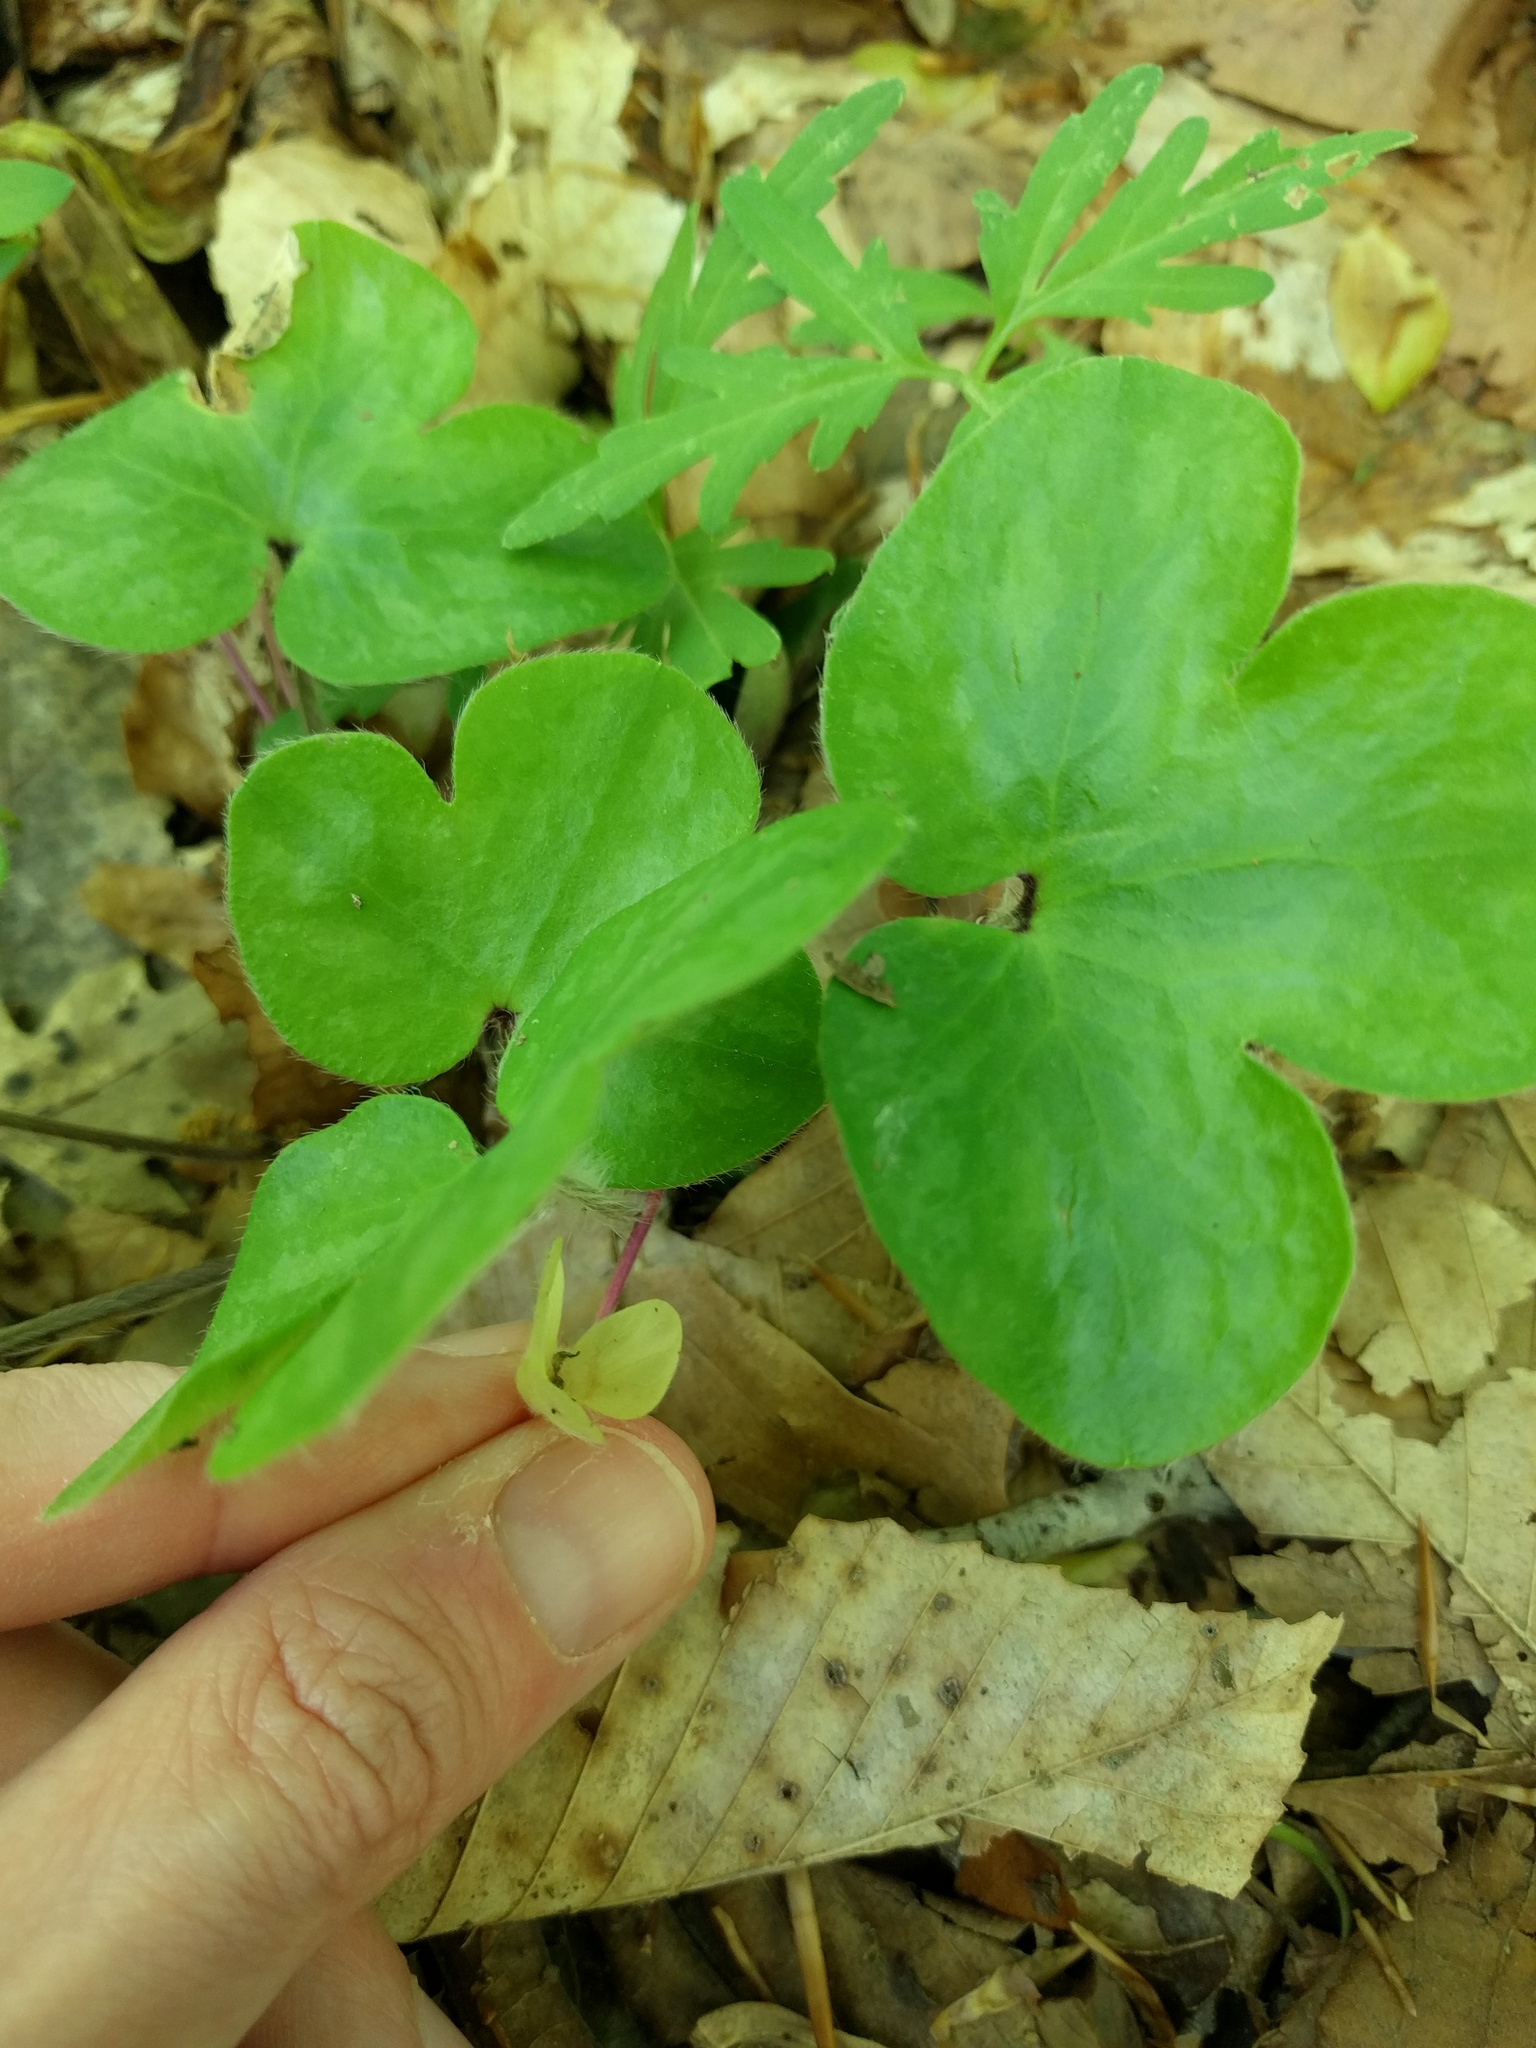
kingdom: Plantae
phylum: Tracheophyta
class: Magnoliopsida
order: Ranunculales
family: Ranunculaceae
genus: Hepatica
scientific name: Hepatica americana
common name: American hepatica
